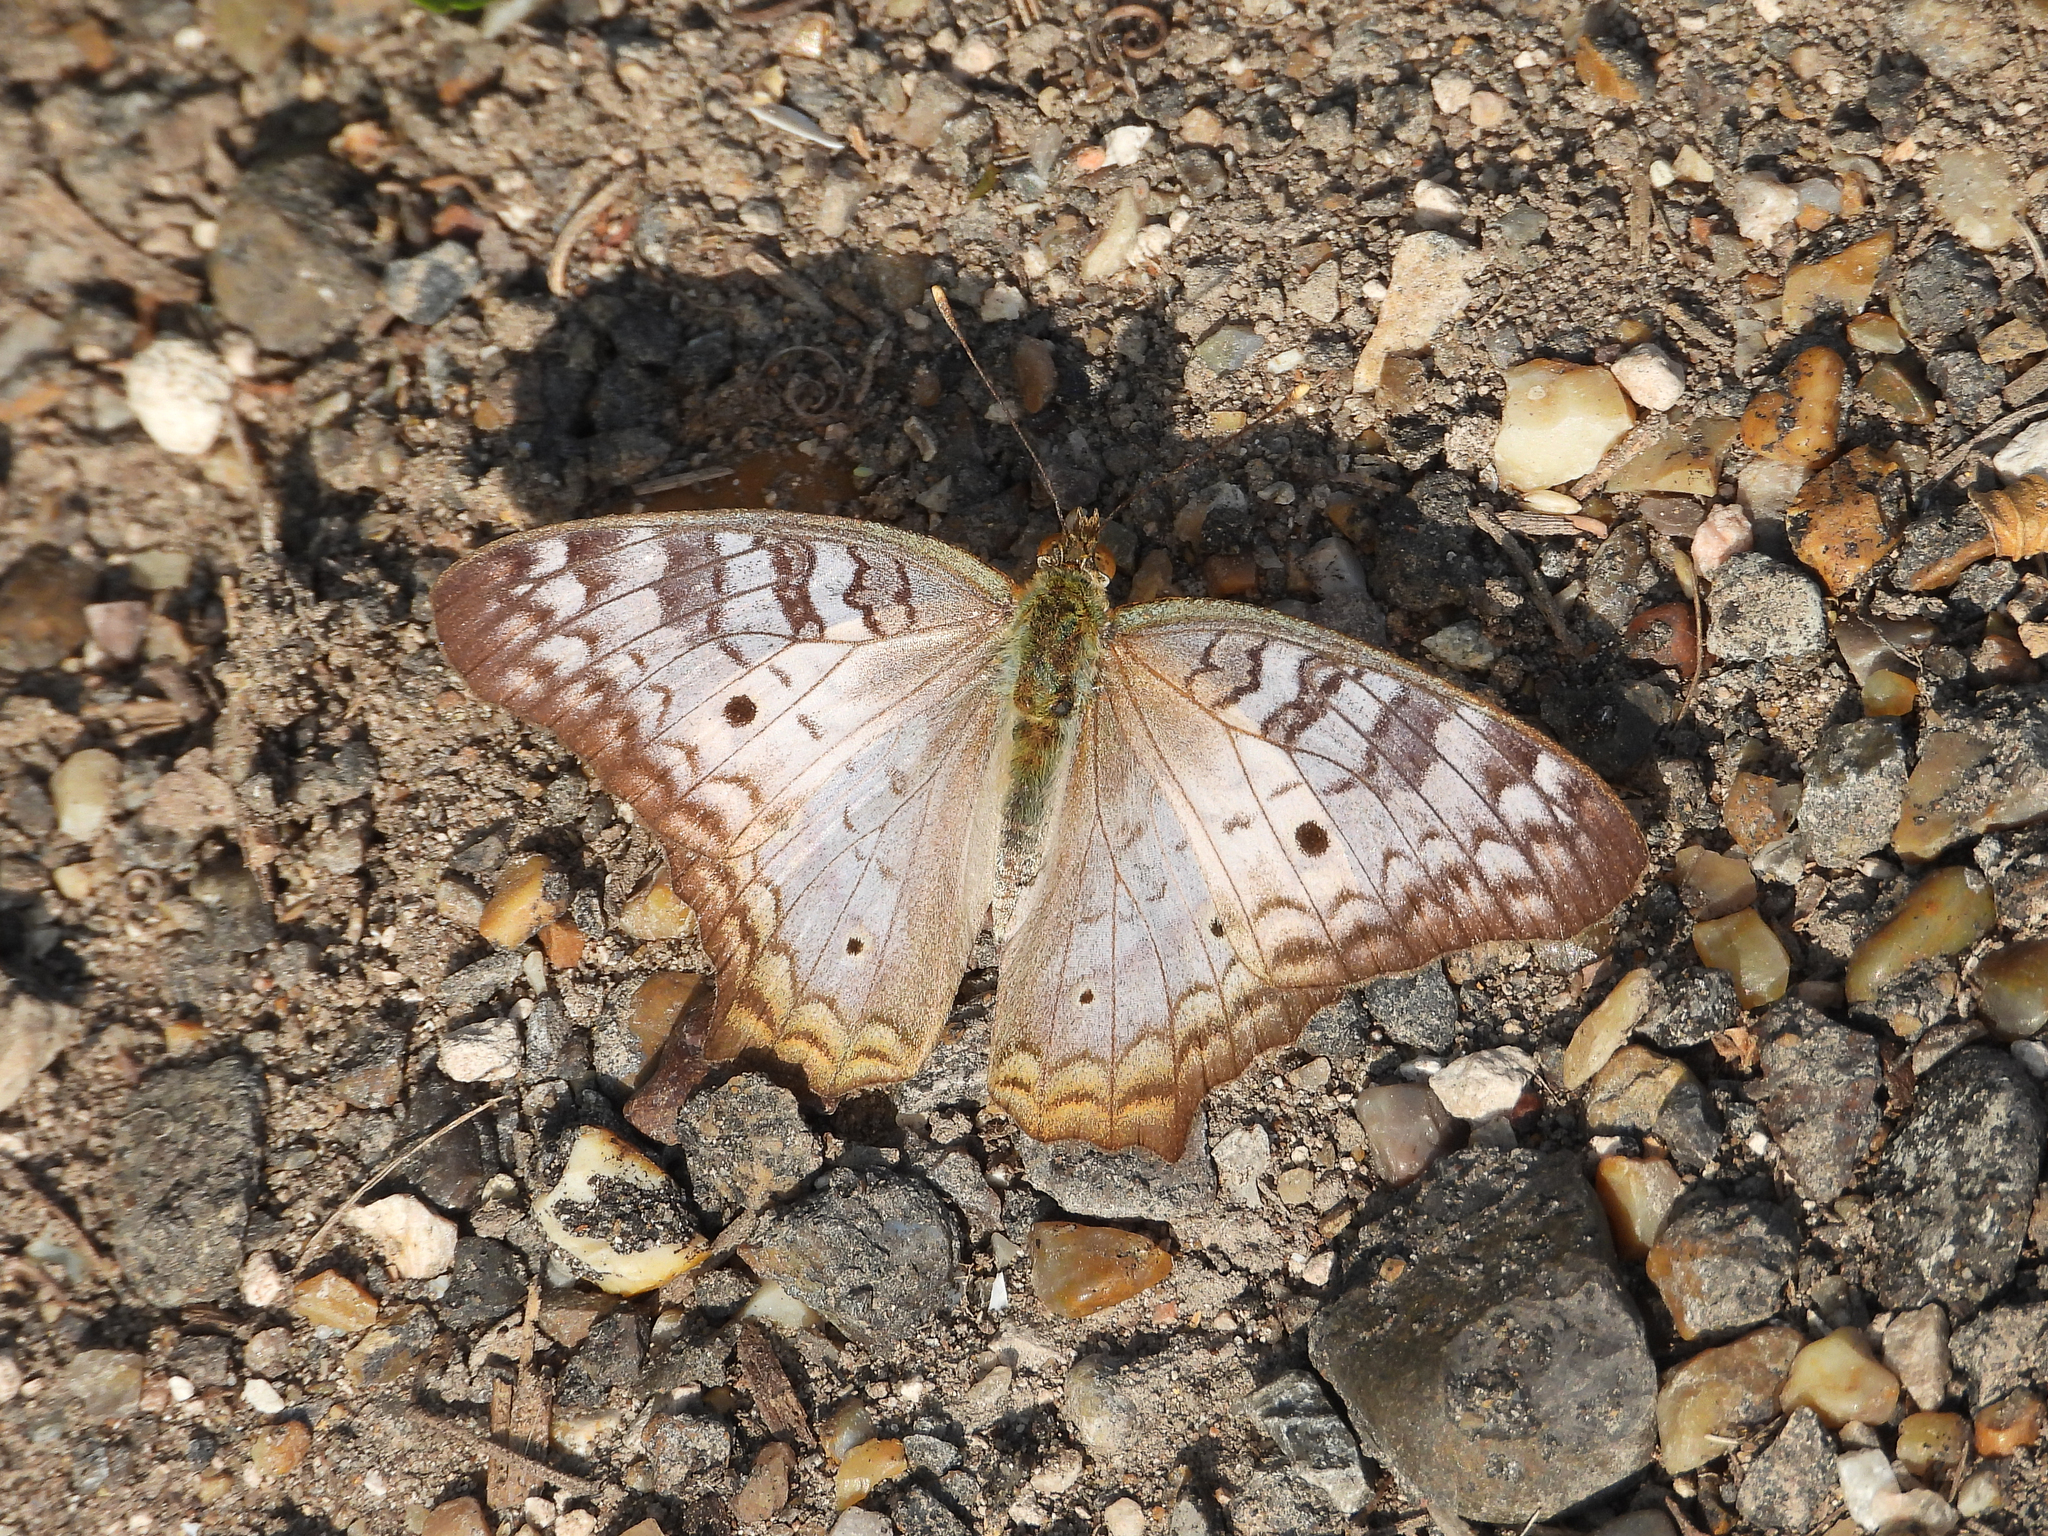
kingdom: Animalia
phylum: Arthropoda
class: Insecta
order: Lepidoptera
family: Nymphalidae
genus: Anartia
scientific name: Anartia jatrophae
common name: White peacock
